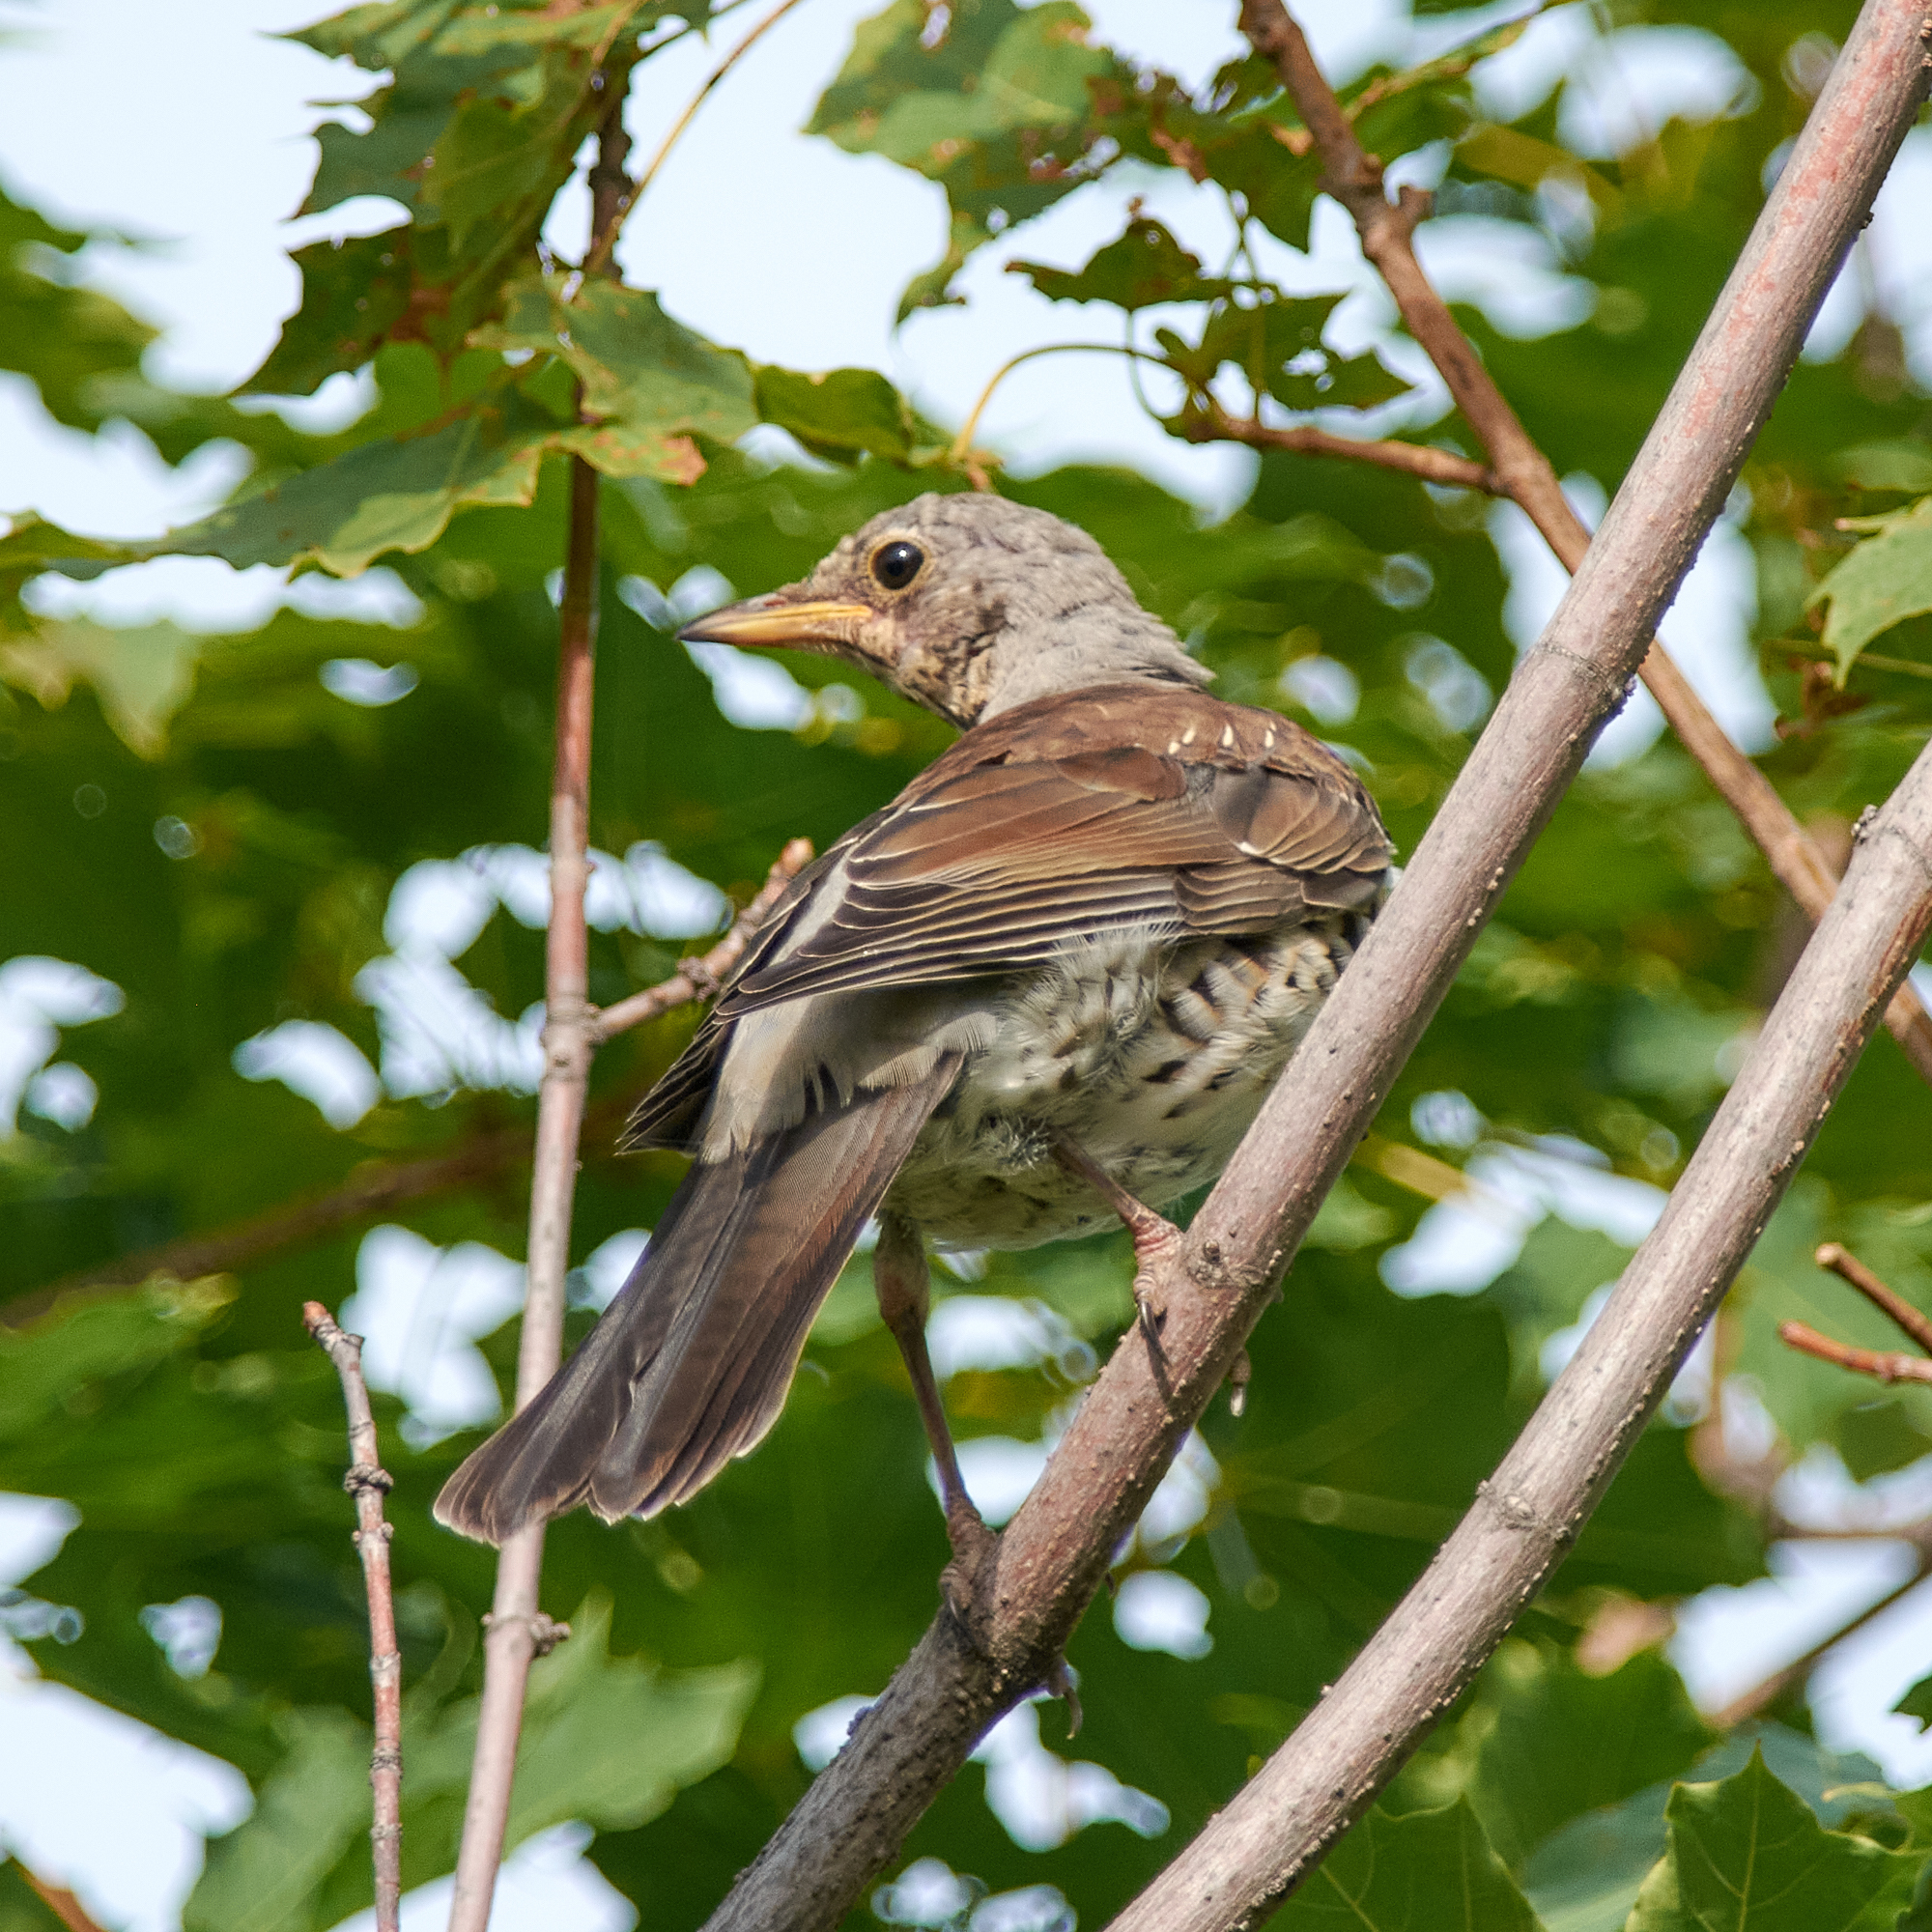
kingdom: Animalia
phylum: Chordata
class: Aves
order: Passeriformes
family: Turdidae
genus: Turdus
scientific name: Turdus pilaris
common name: Fieldfare
